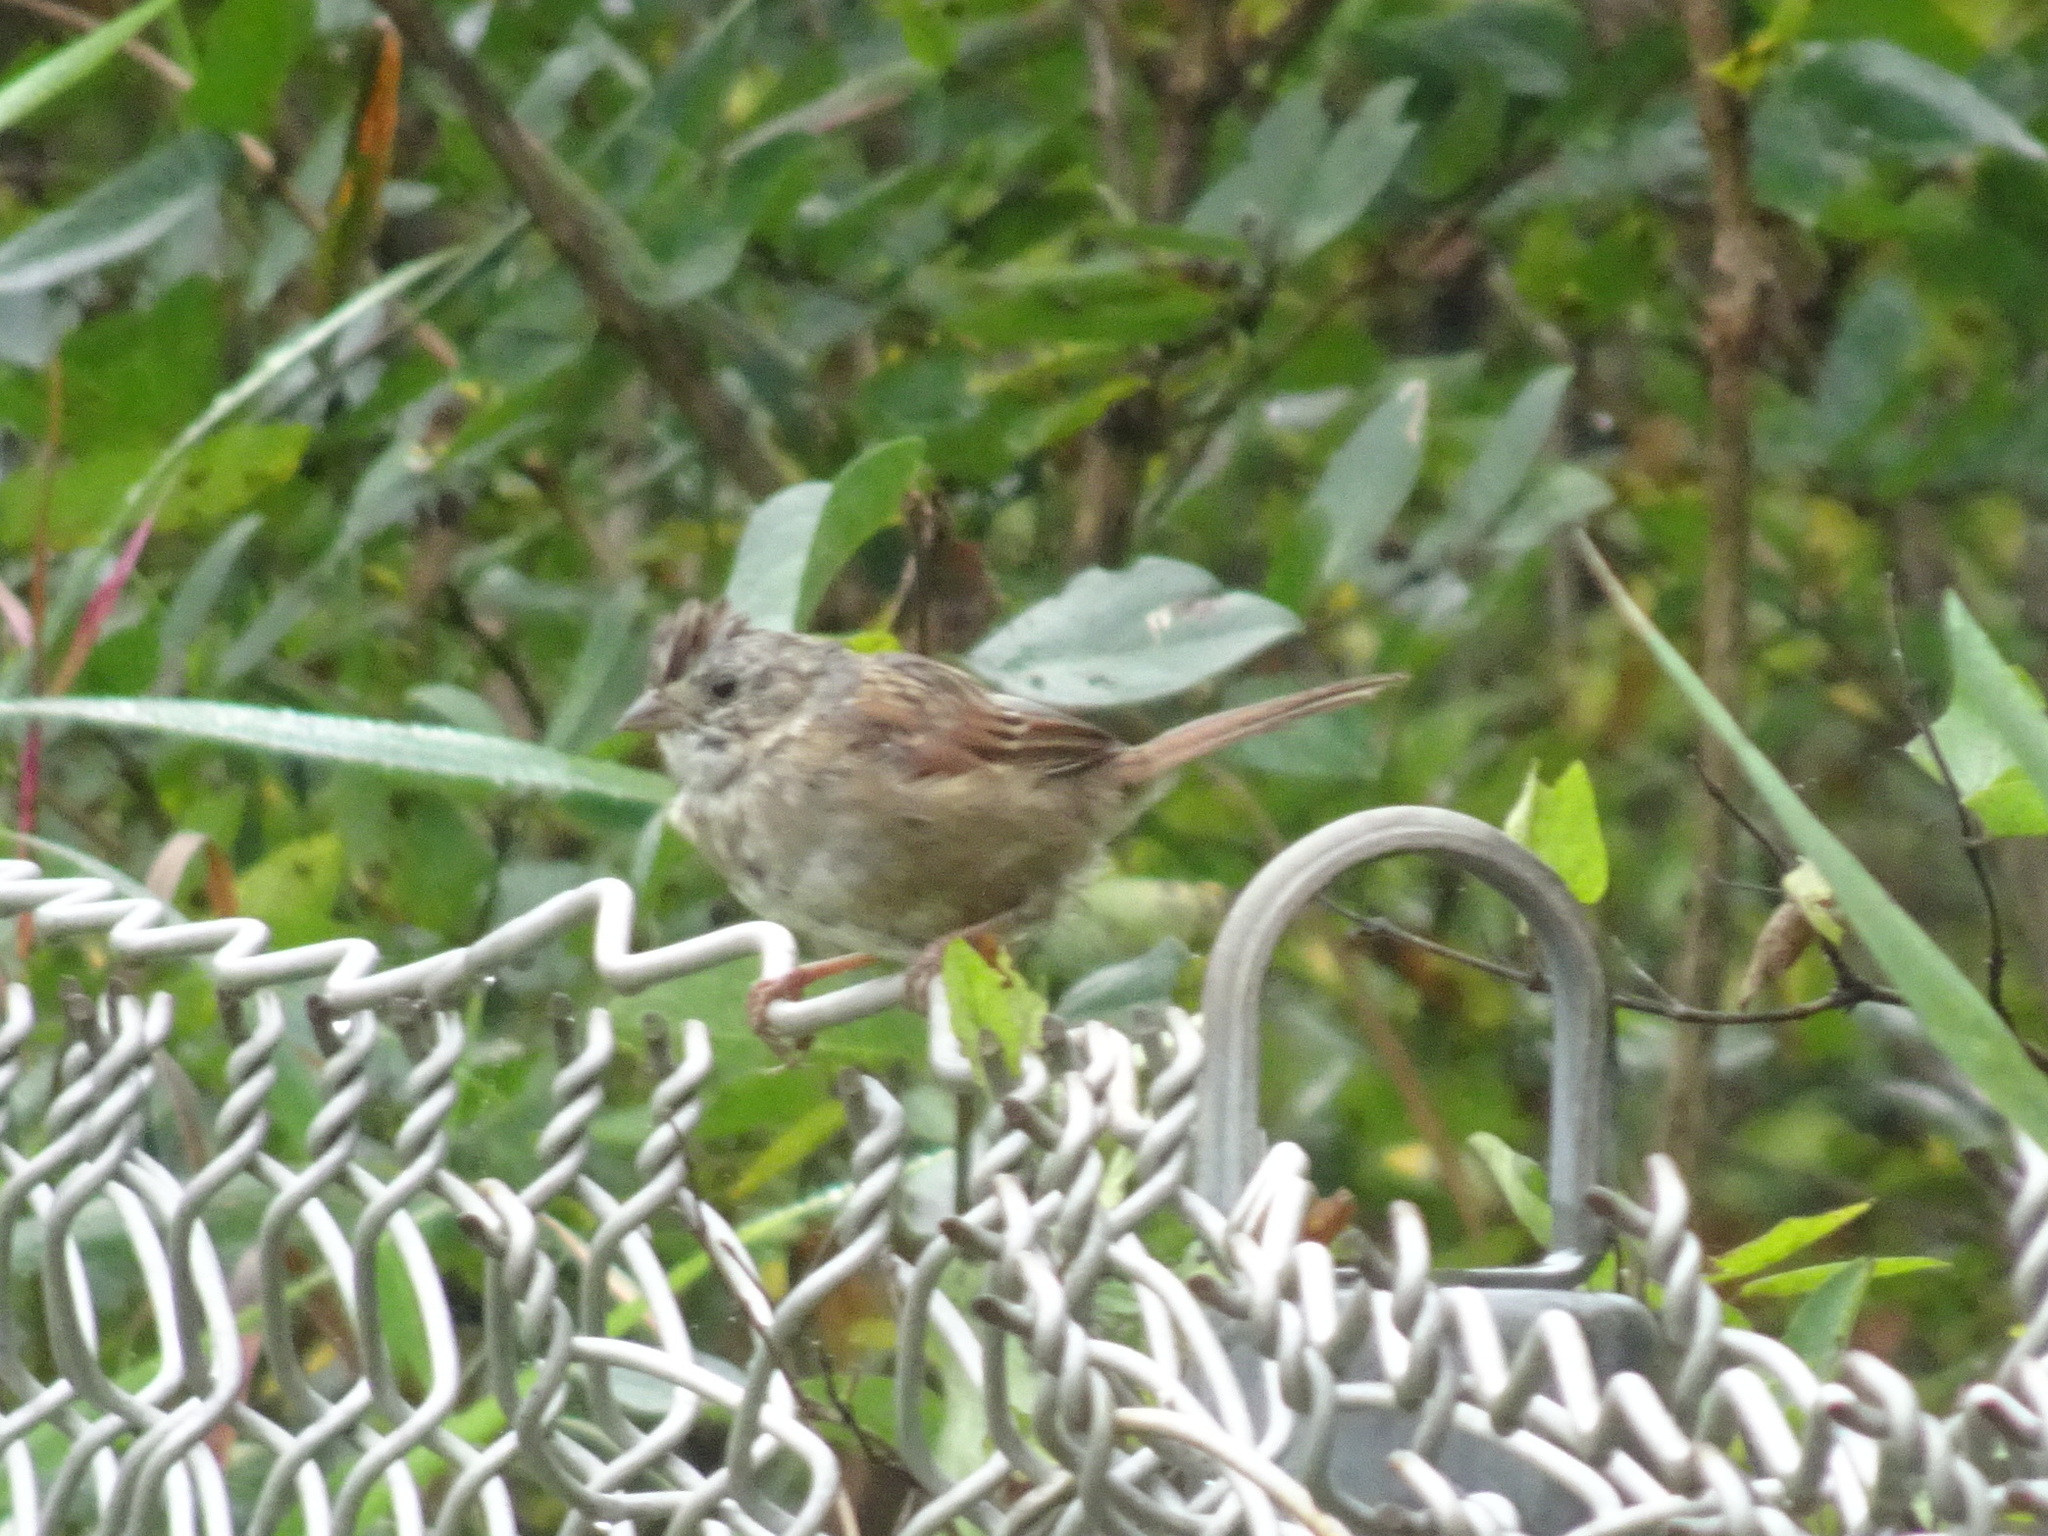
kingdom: Animalia
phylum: Chordata
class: Aves
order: Passeriformes
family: Passerellidae
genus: Melospiza
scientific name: Melospiza georgiana
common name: Swamp sparrow
